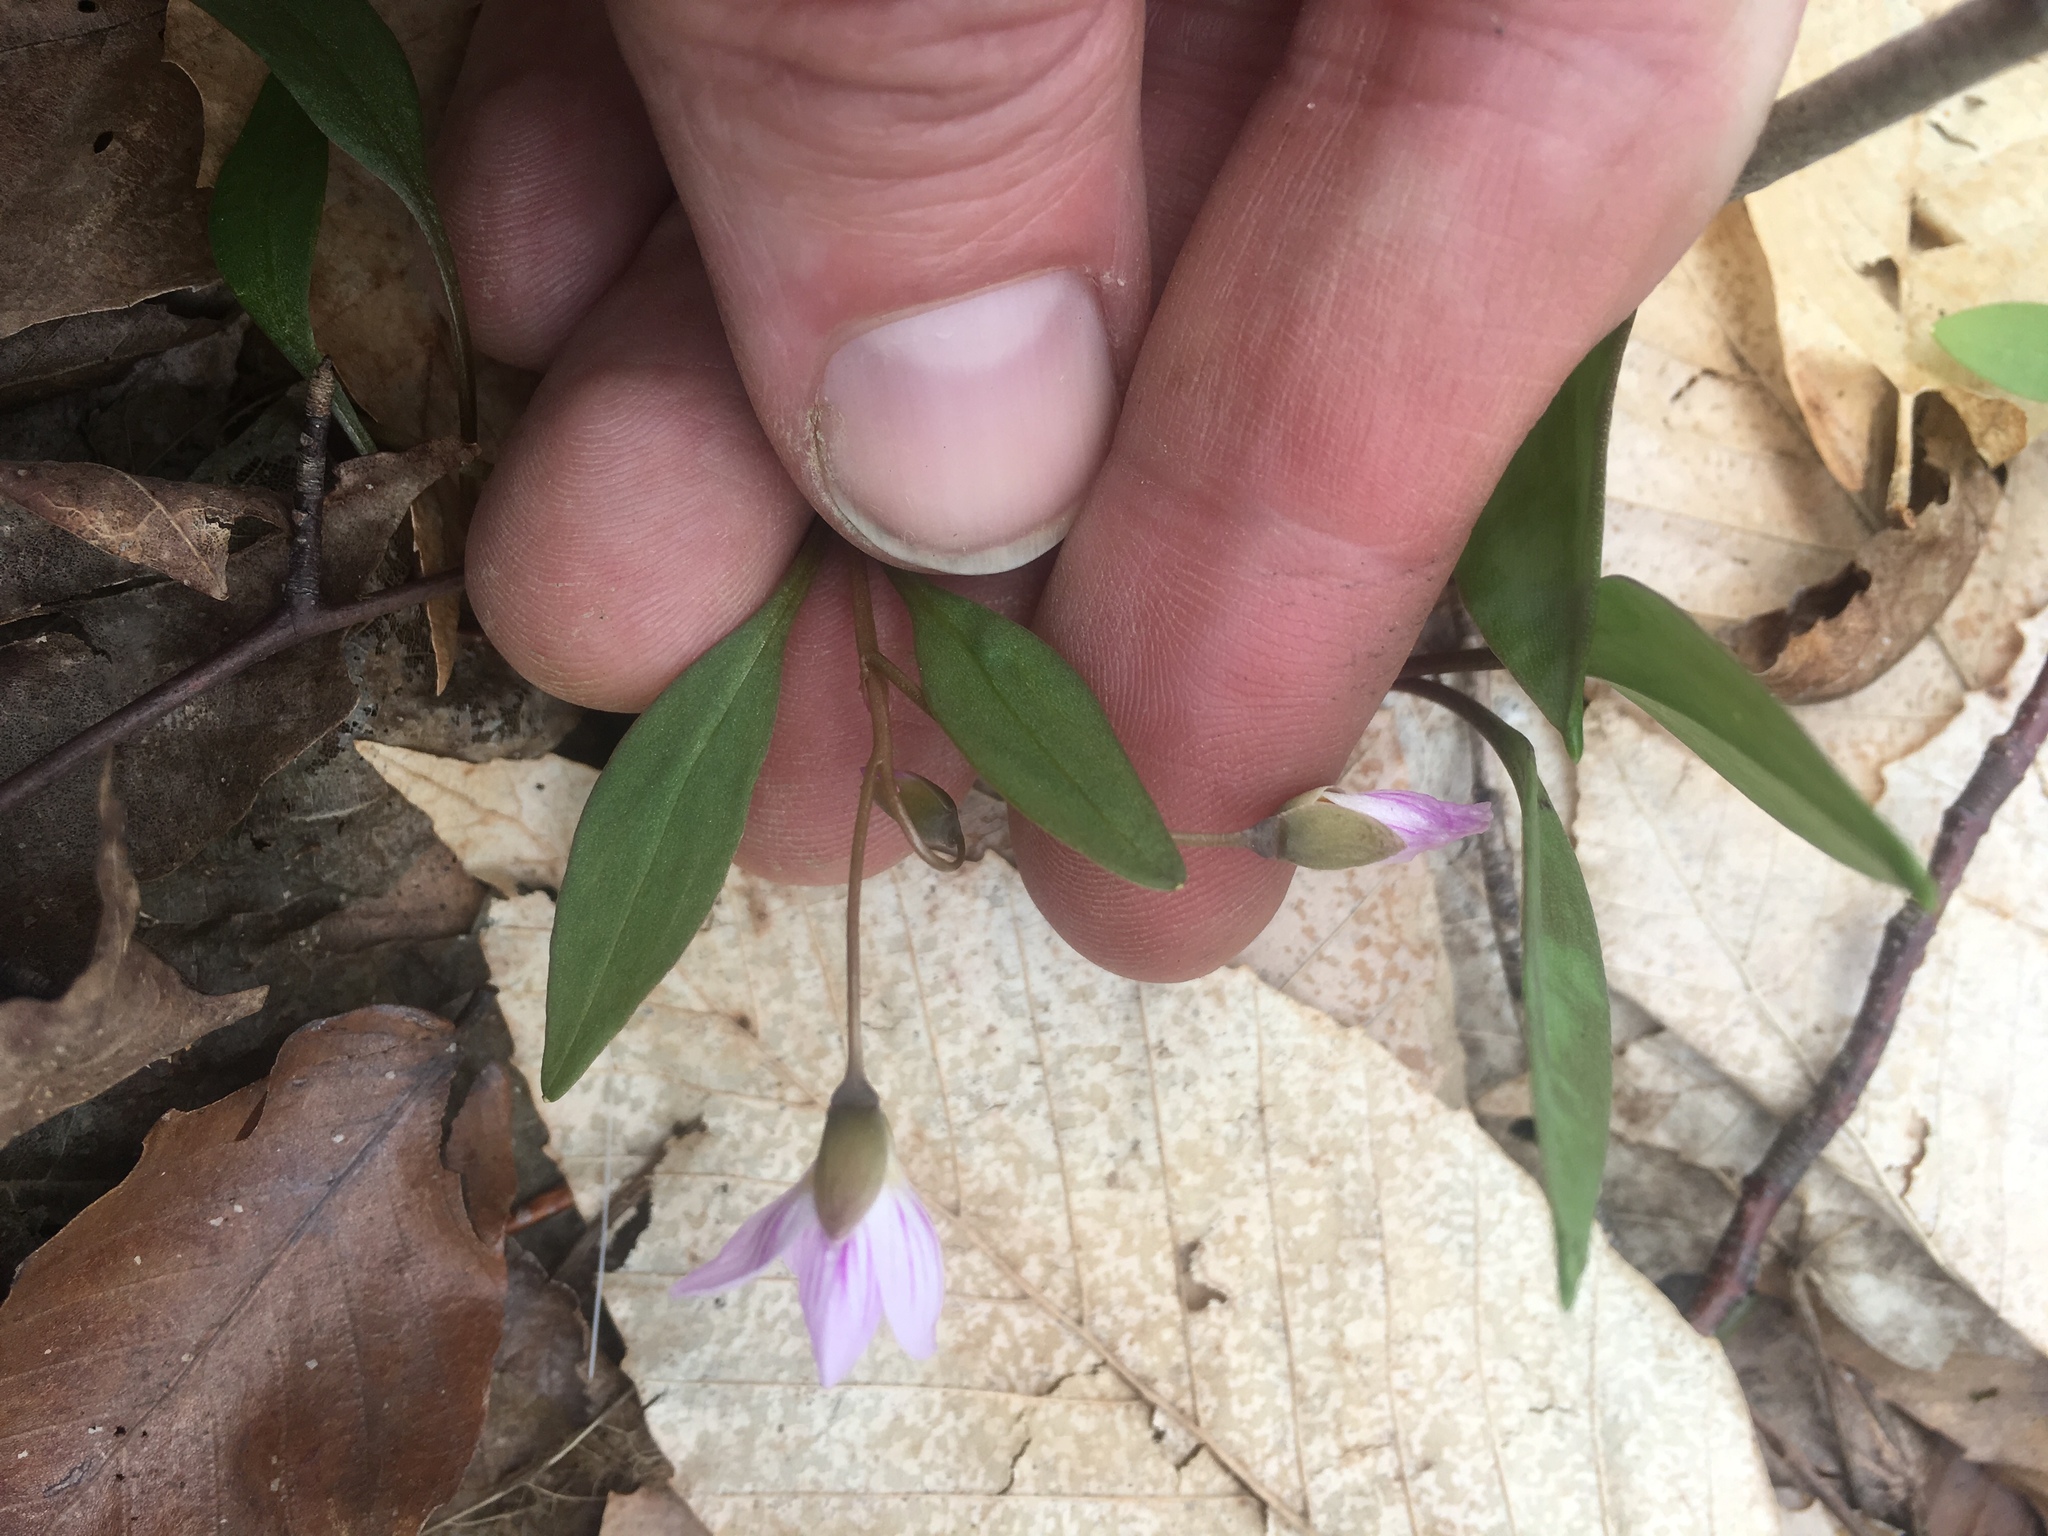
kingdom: Plantae
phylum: Tracheophyta
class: Magnoliopsida
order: Caryophyllales
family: Montiaceae
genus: Claytonia
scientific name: Claytonia caroliniana
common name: Carolina spring beauty
